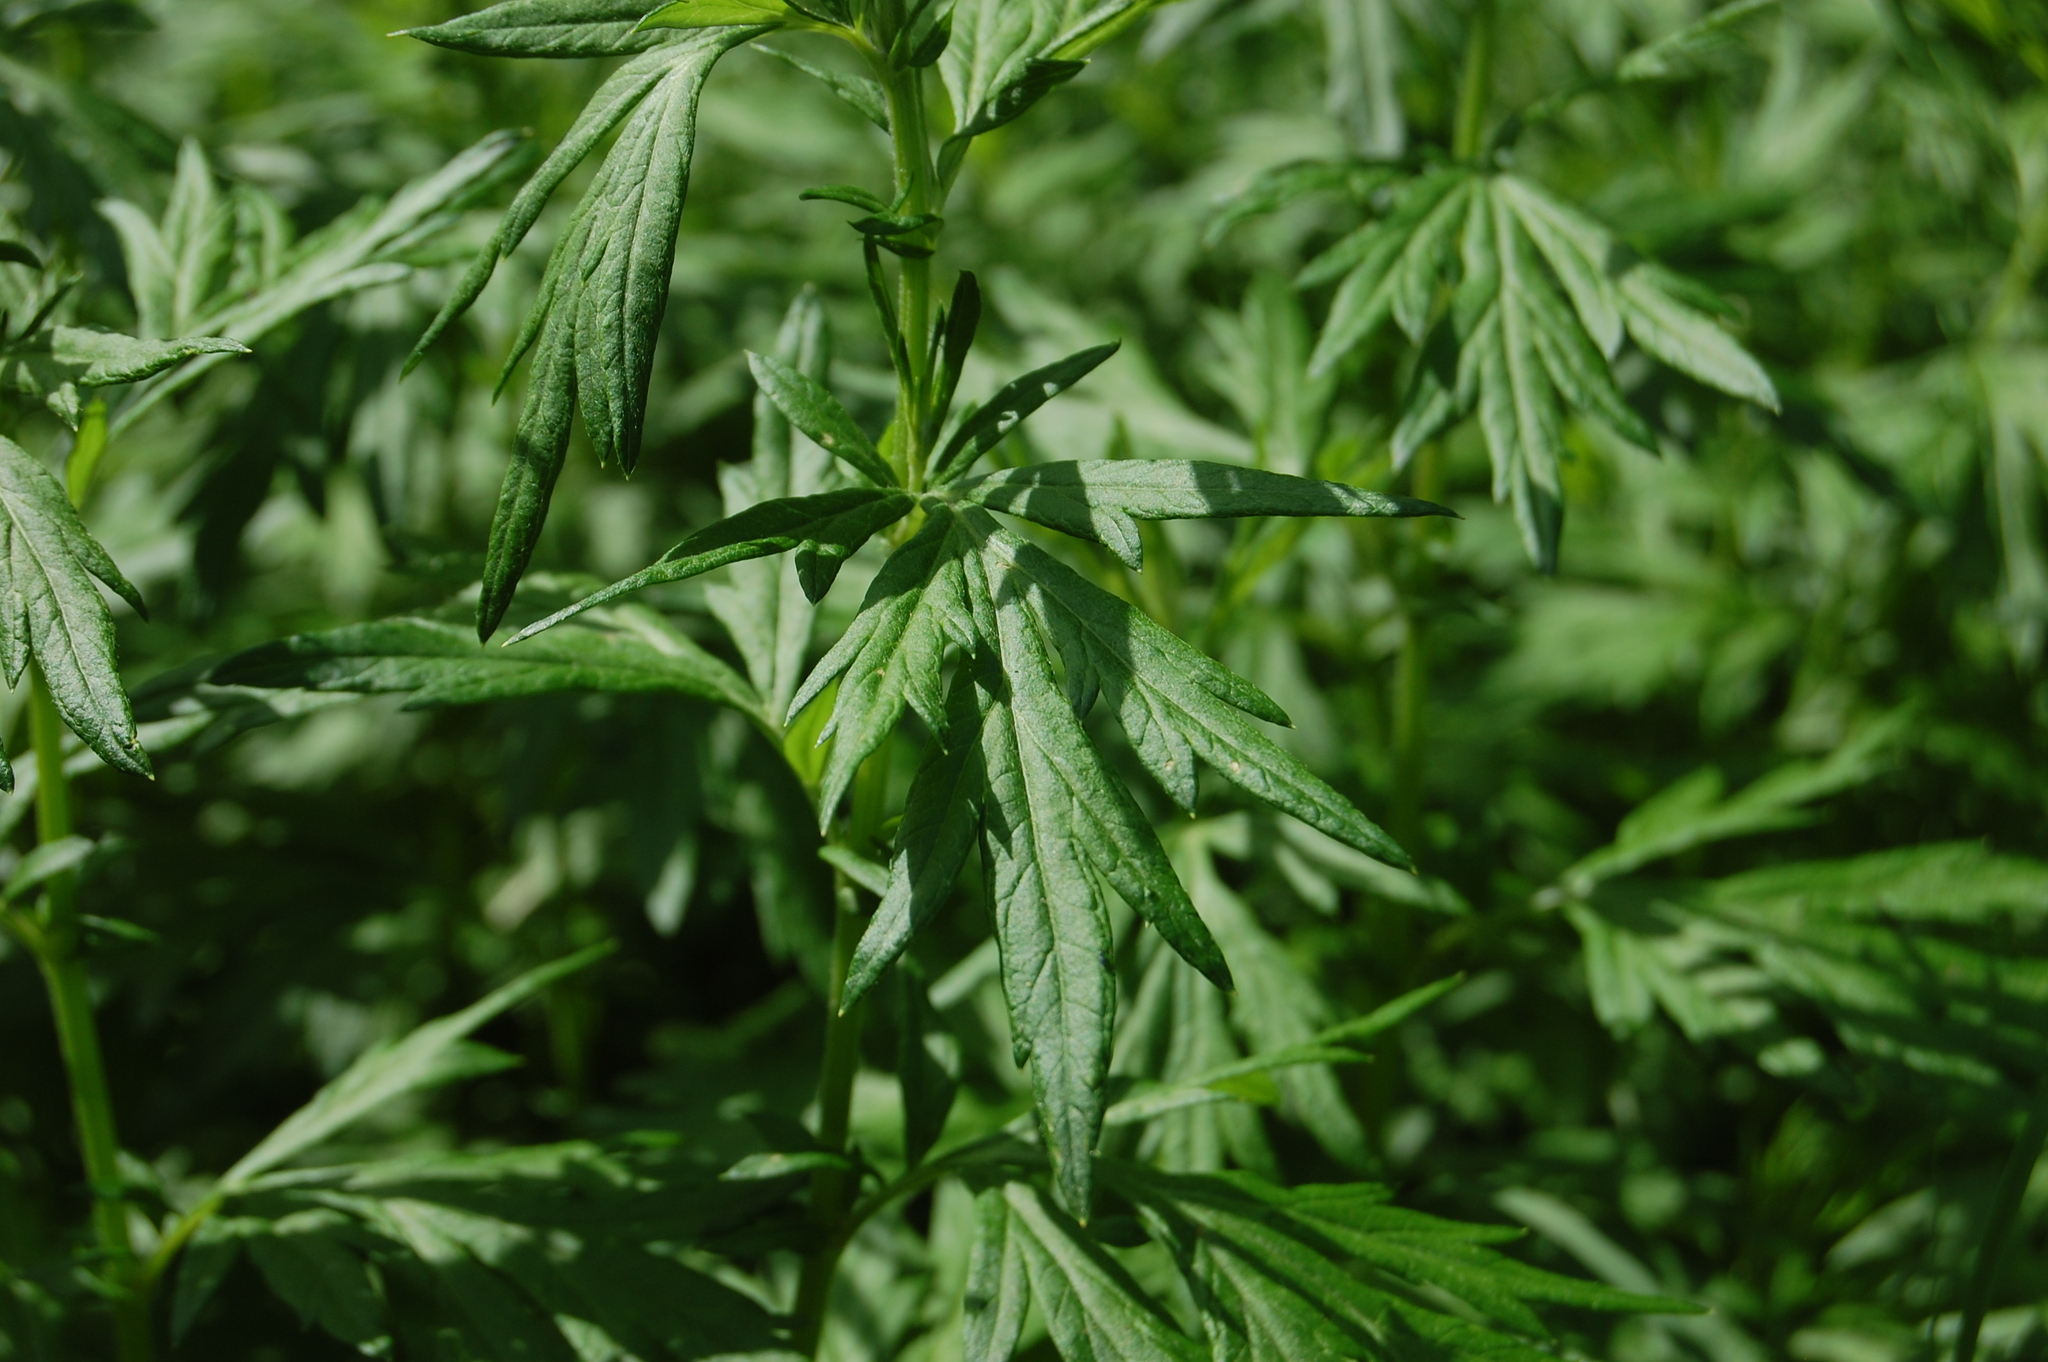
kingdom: Plantae
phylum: Tracheophyta
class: Magnoliopsida
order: Asterales
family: Asteraceae
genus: Artemisia
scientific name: Artemisia vulgaris
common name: Mugwort
